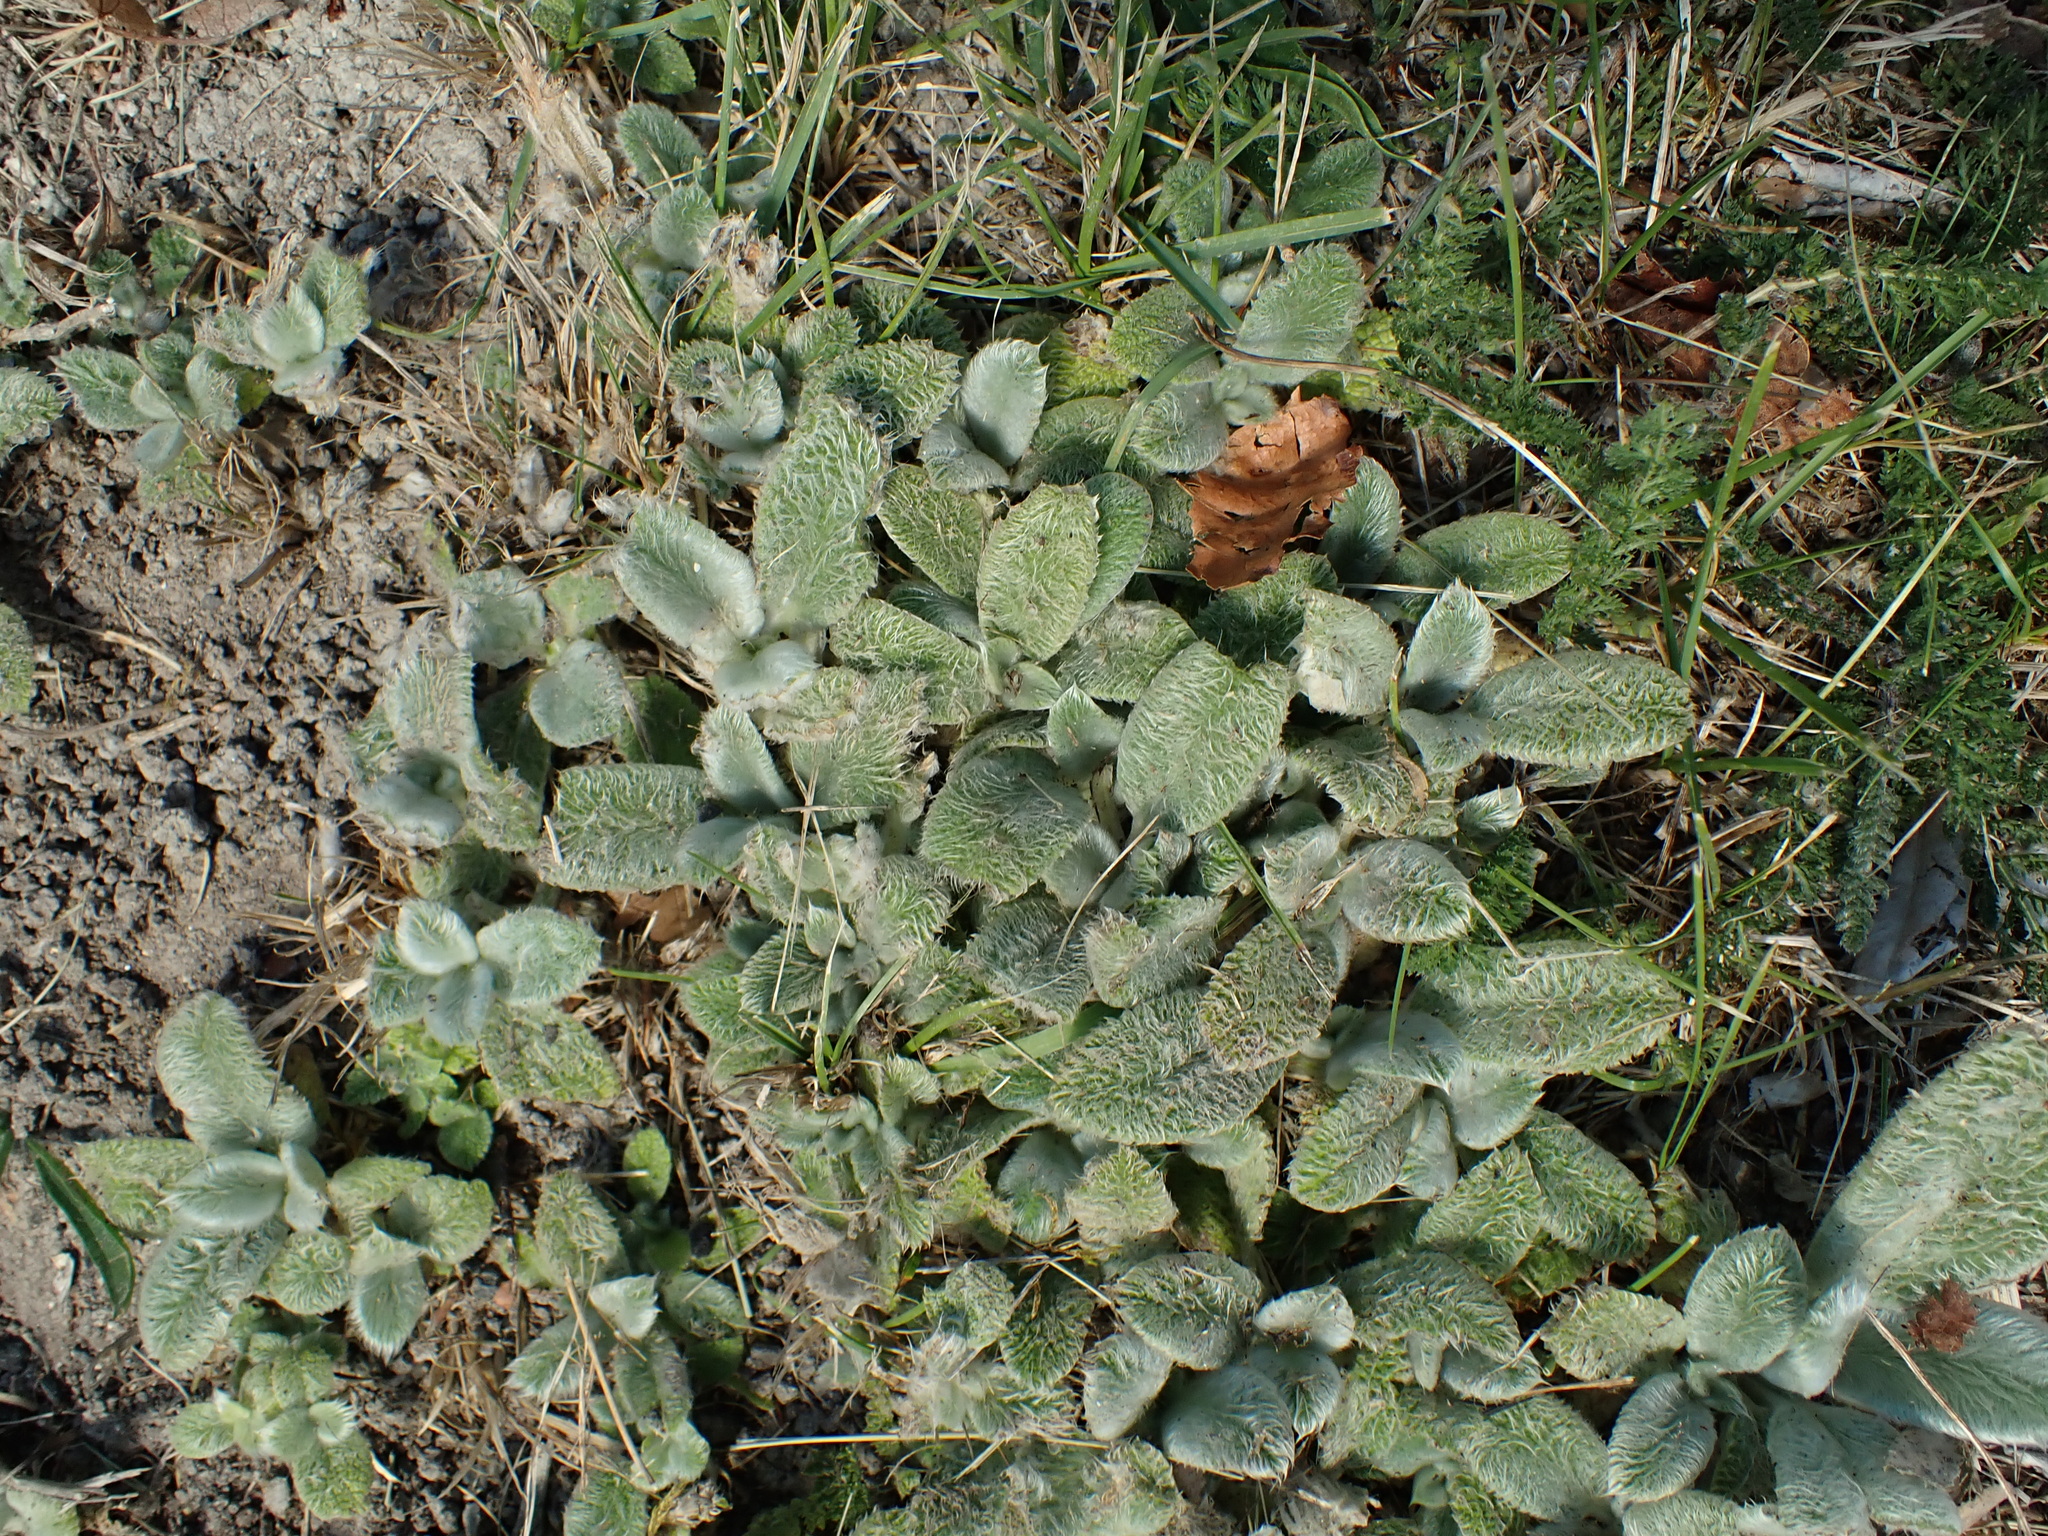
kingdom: Plantae
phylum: Tracheophyta
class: Magnoliopsida
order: Lamiales
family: Lamiaceae
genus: Stachys
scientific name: Stachys byzantina
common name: Lamb's-ear
